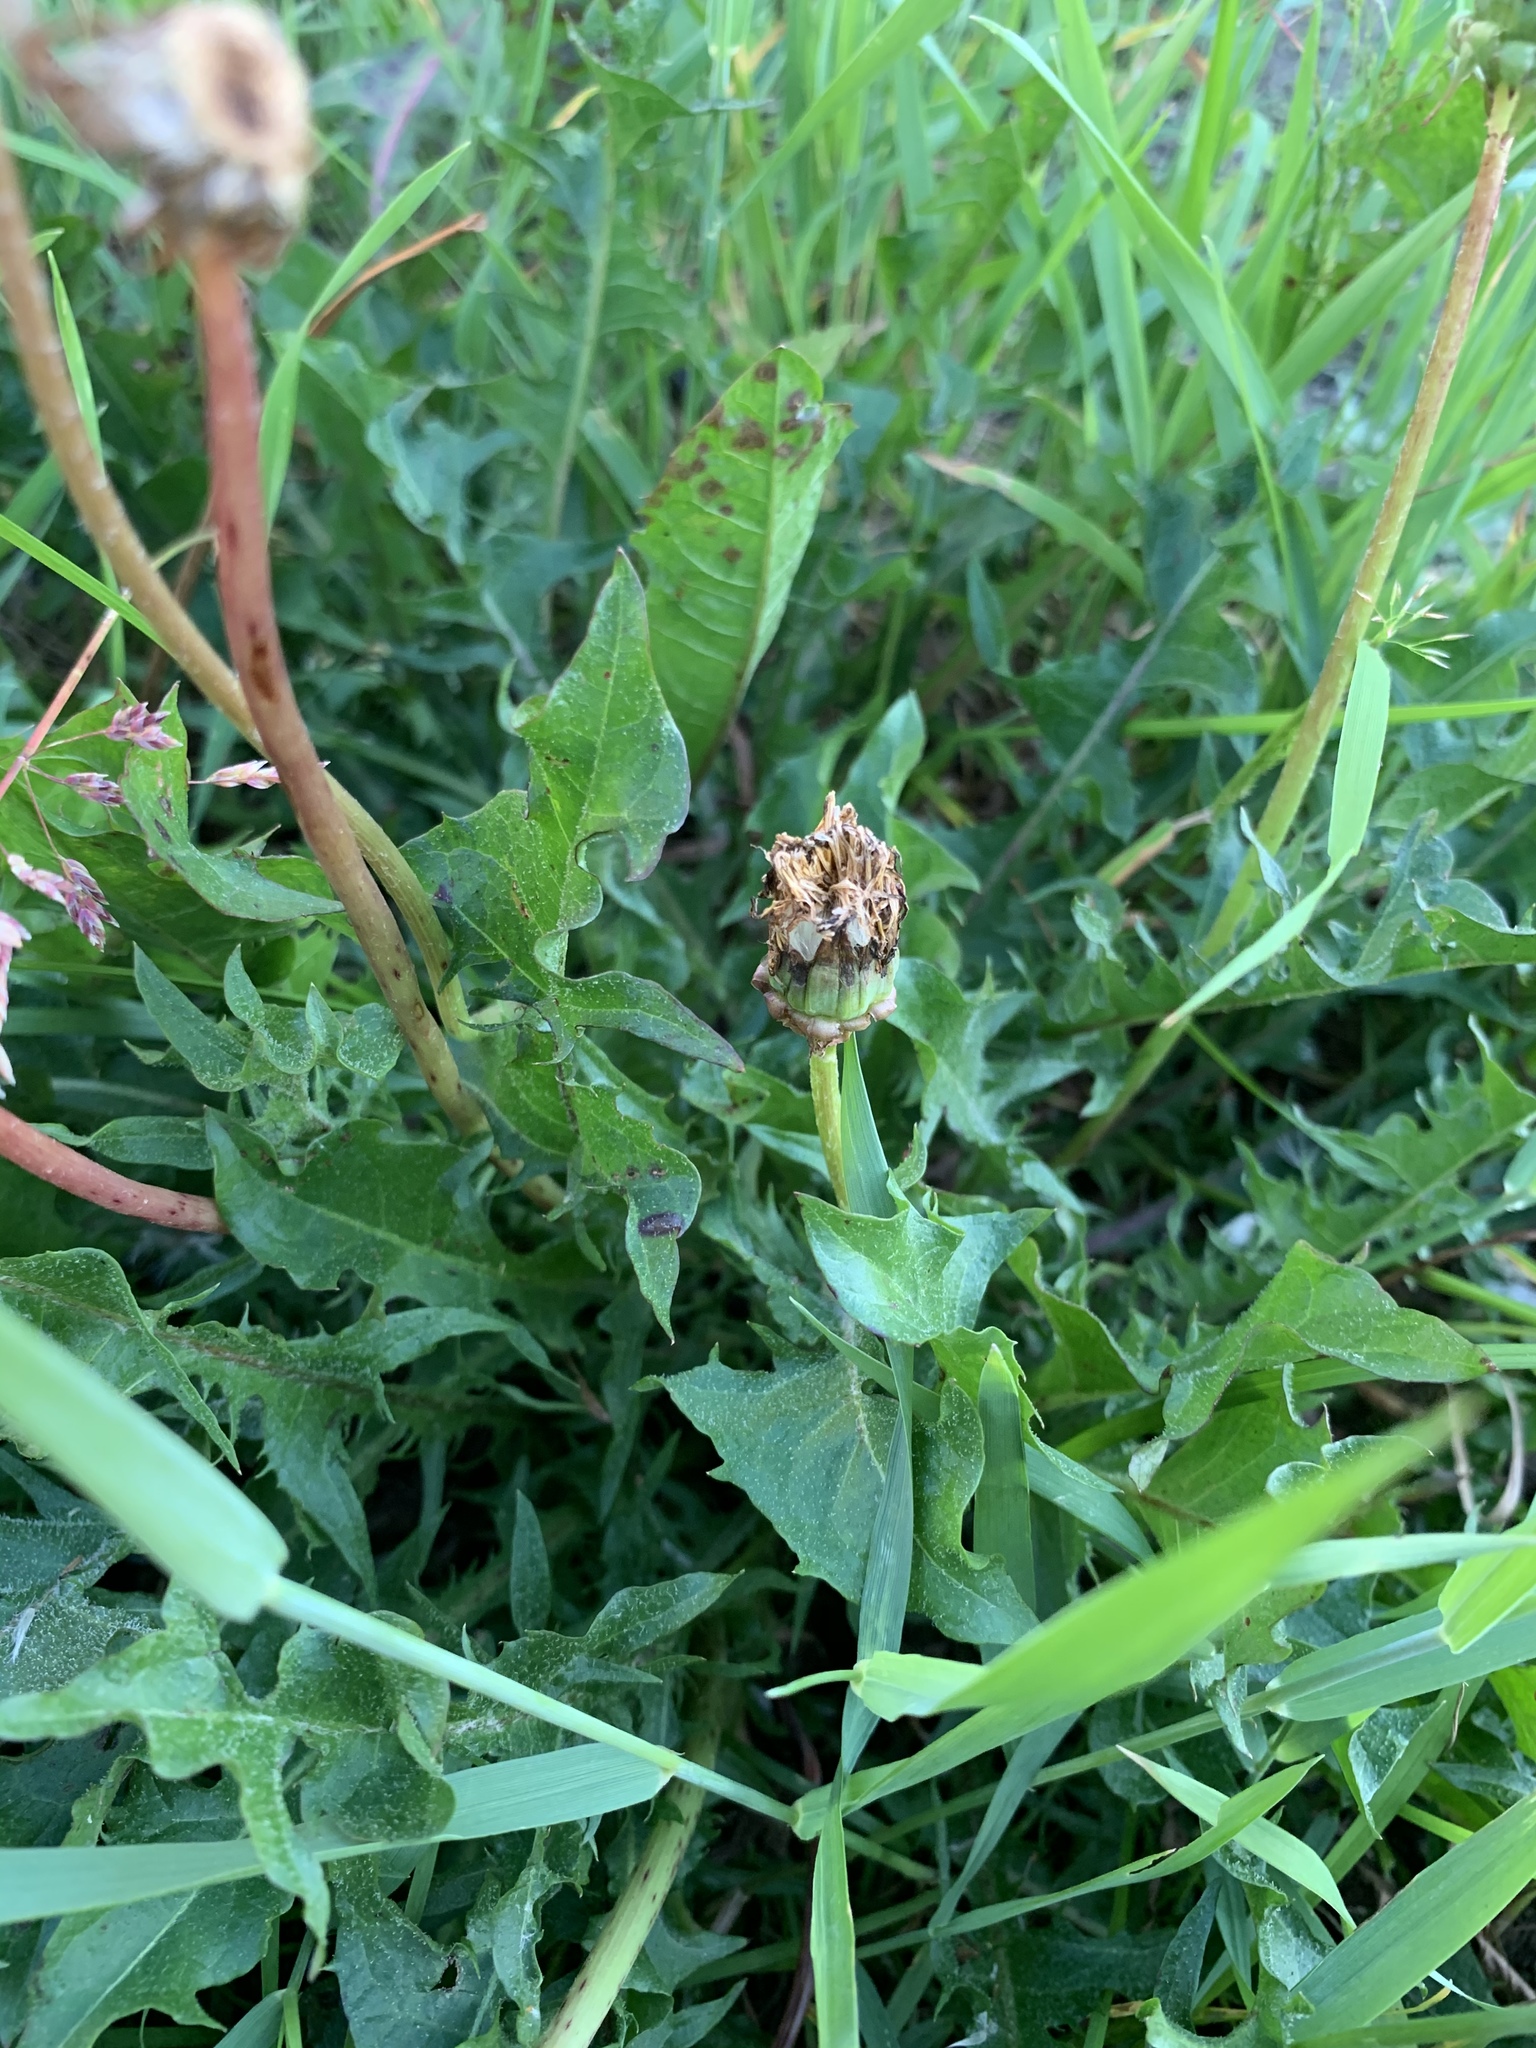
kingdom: Plantae
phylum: Tracheophyta
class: Magnoliopsida
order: Asterales
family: Asteraceae
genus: Taraxacum
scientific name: Taraxacum officinale
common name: Common dandelion
